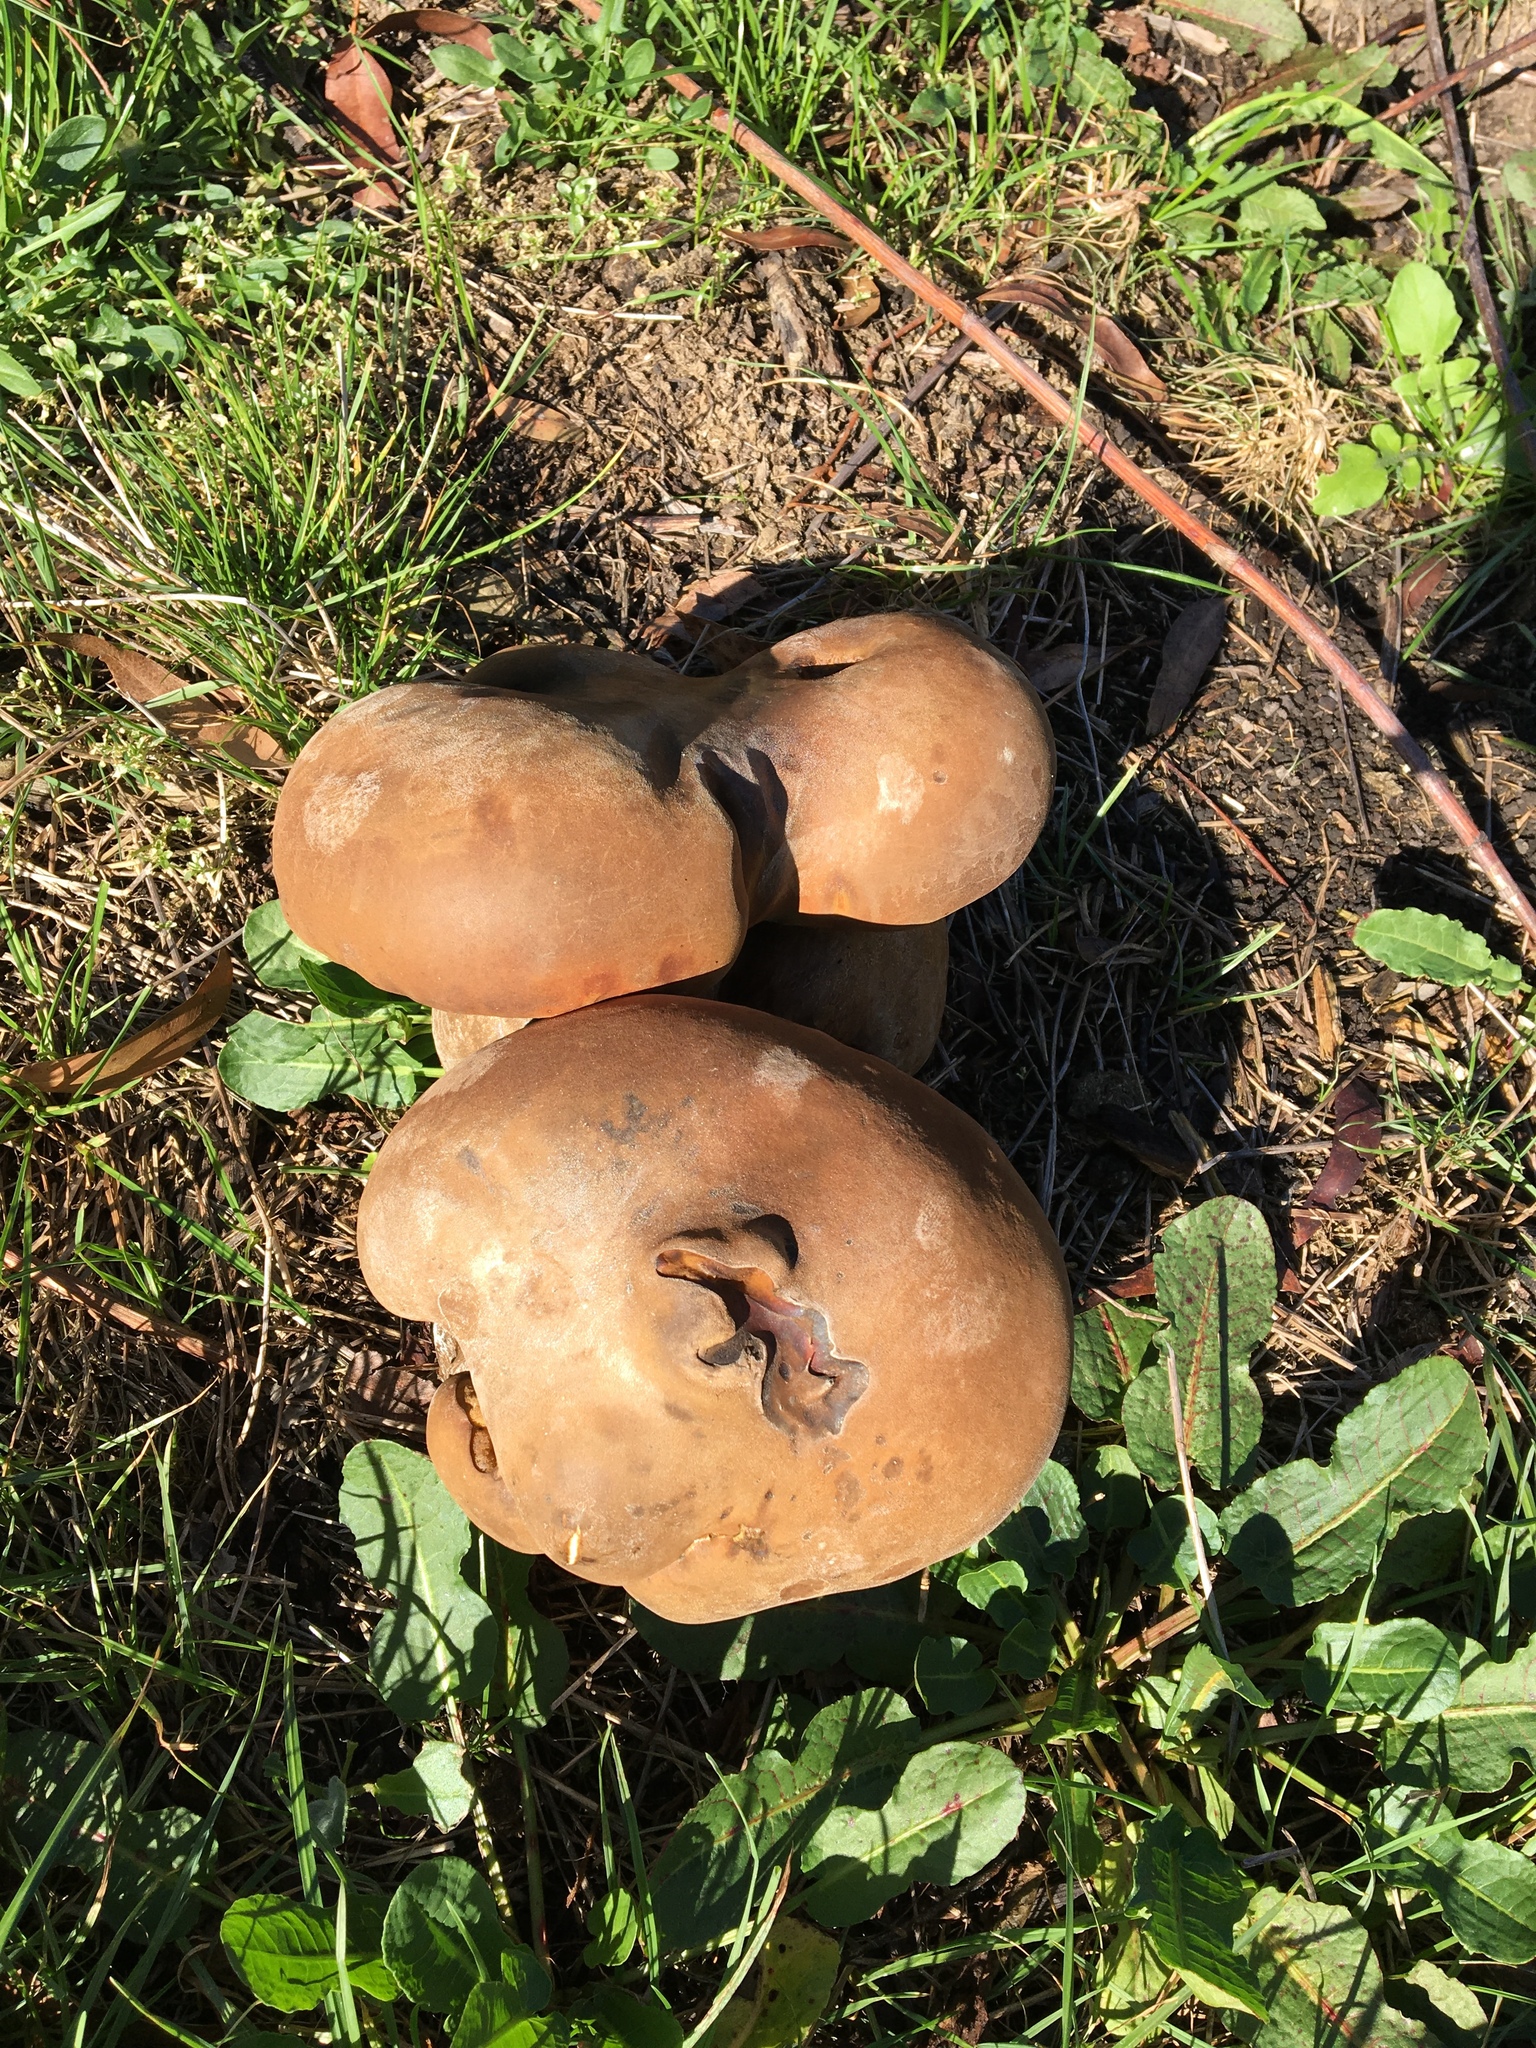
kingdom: Fungi
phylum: Basidiomycota
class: Agaricomycetes
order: Boletales
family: Boletinellaceae
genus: Phlebopus
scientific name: Phlebopus marginatus
